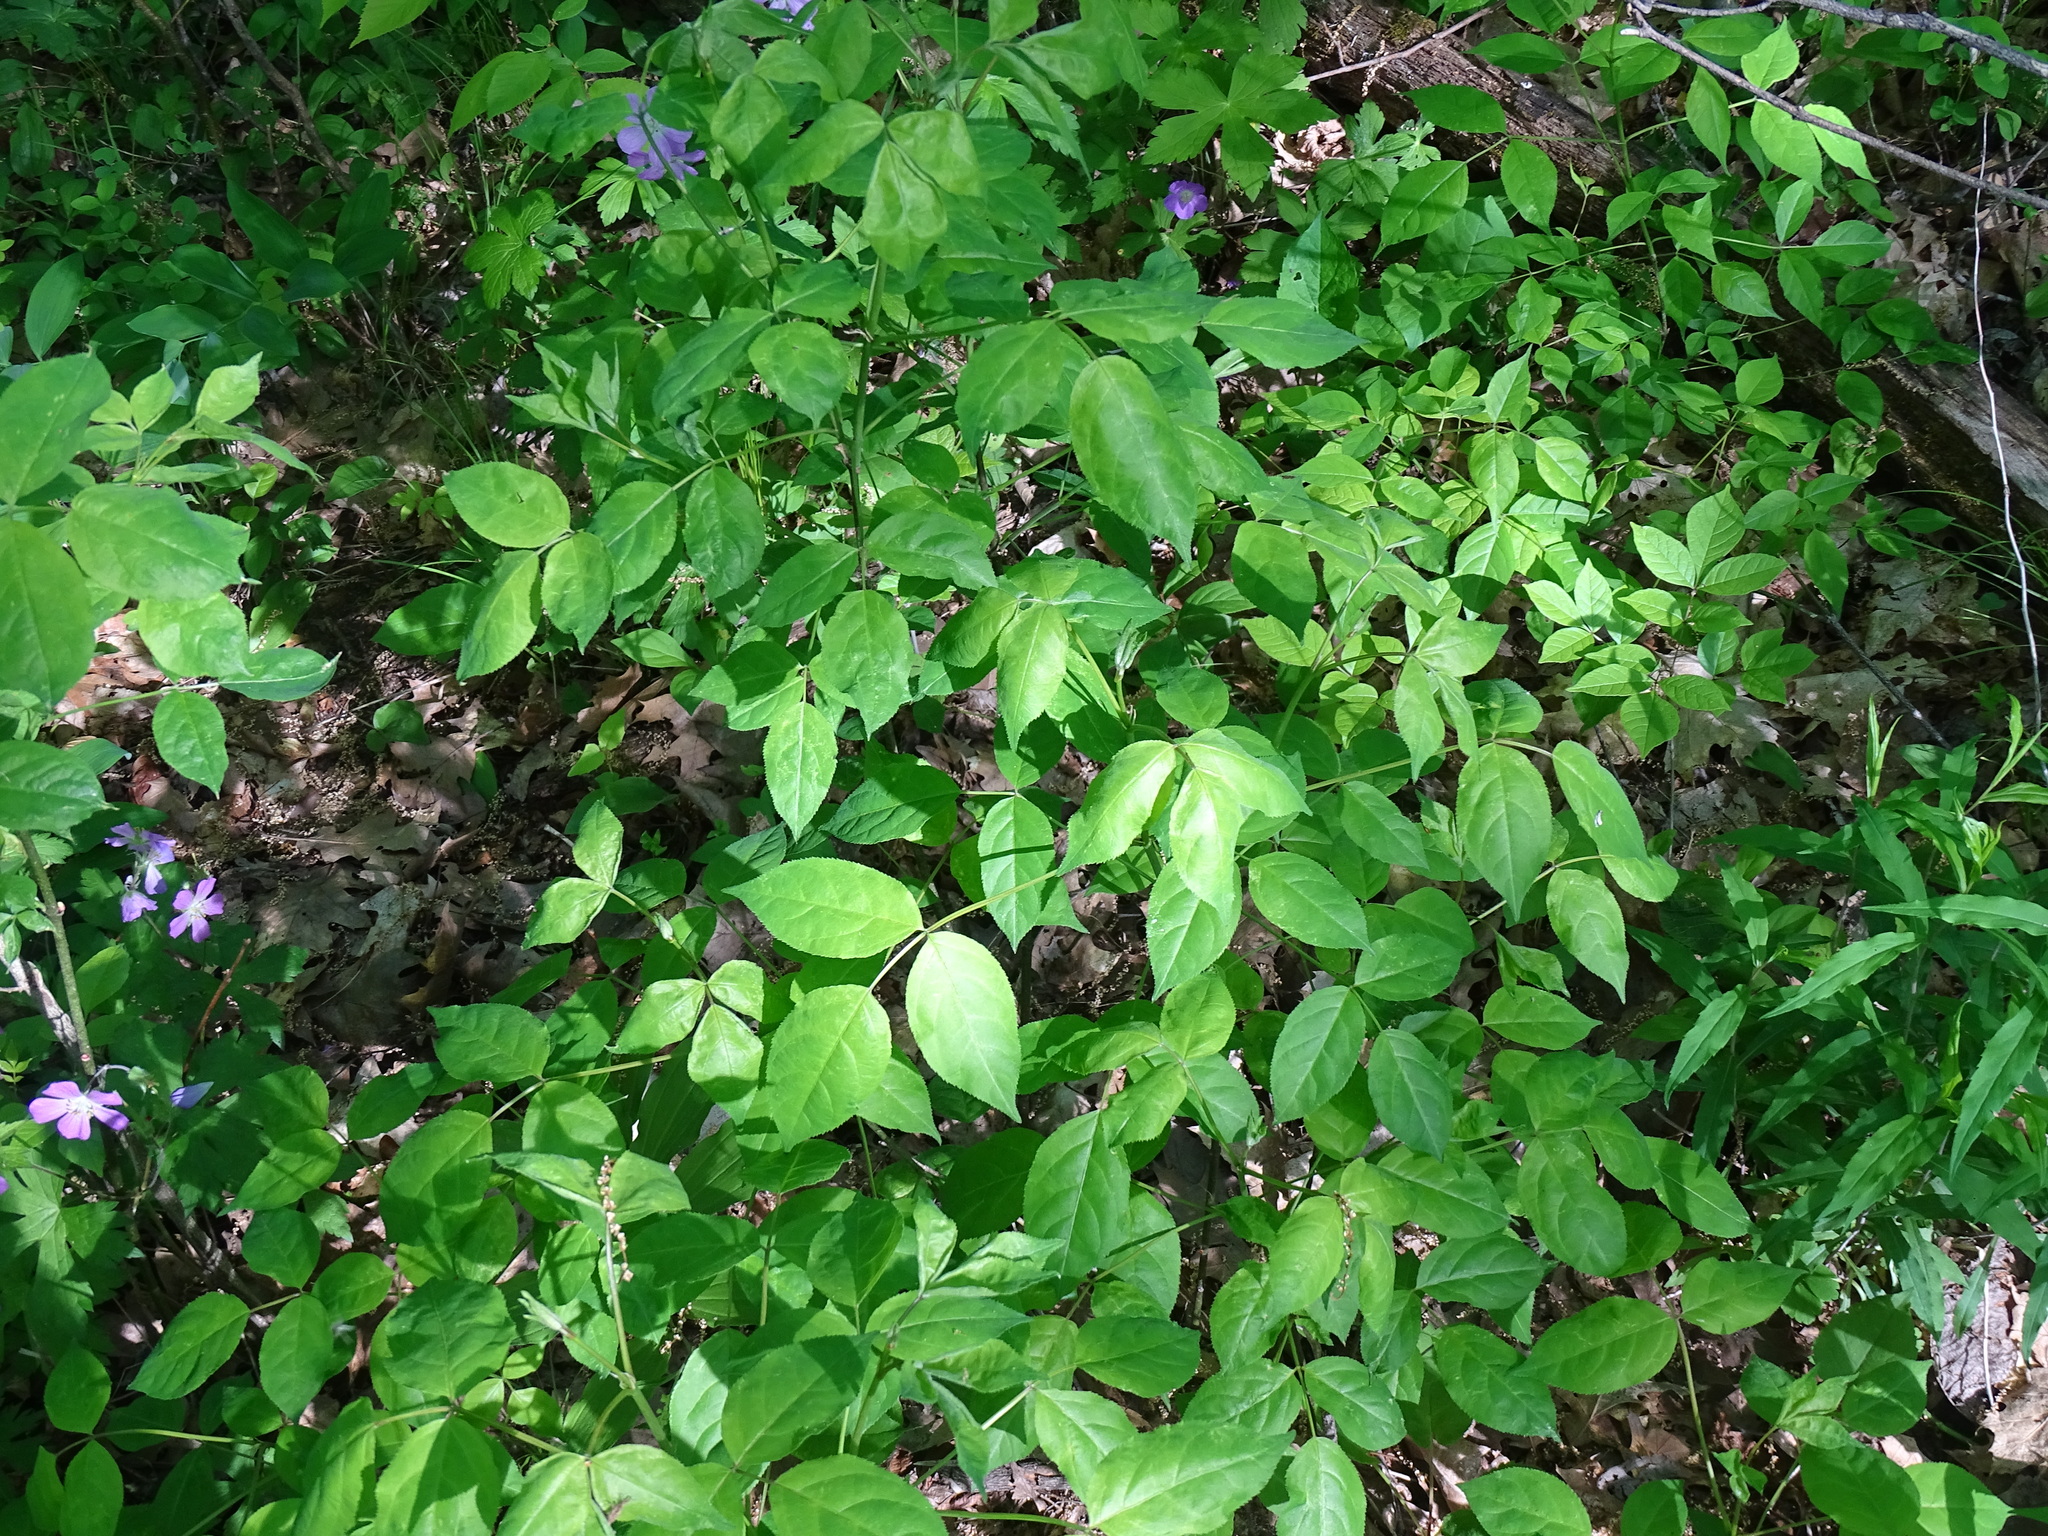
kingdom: Plantae
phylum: Tracheophyta
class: Magnoliopsida
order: Crossosomatales
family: Staphyleaceae
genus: Staphylea
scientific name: Staphylea trifolia
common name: American bladdernut
